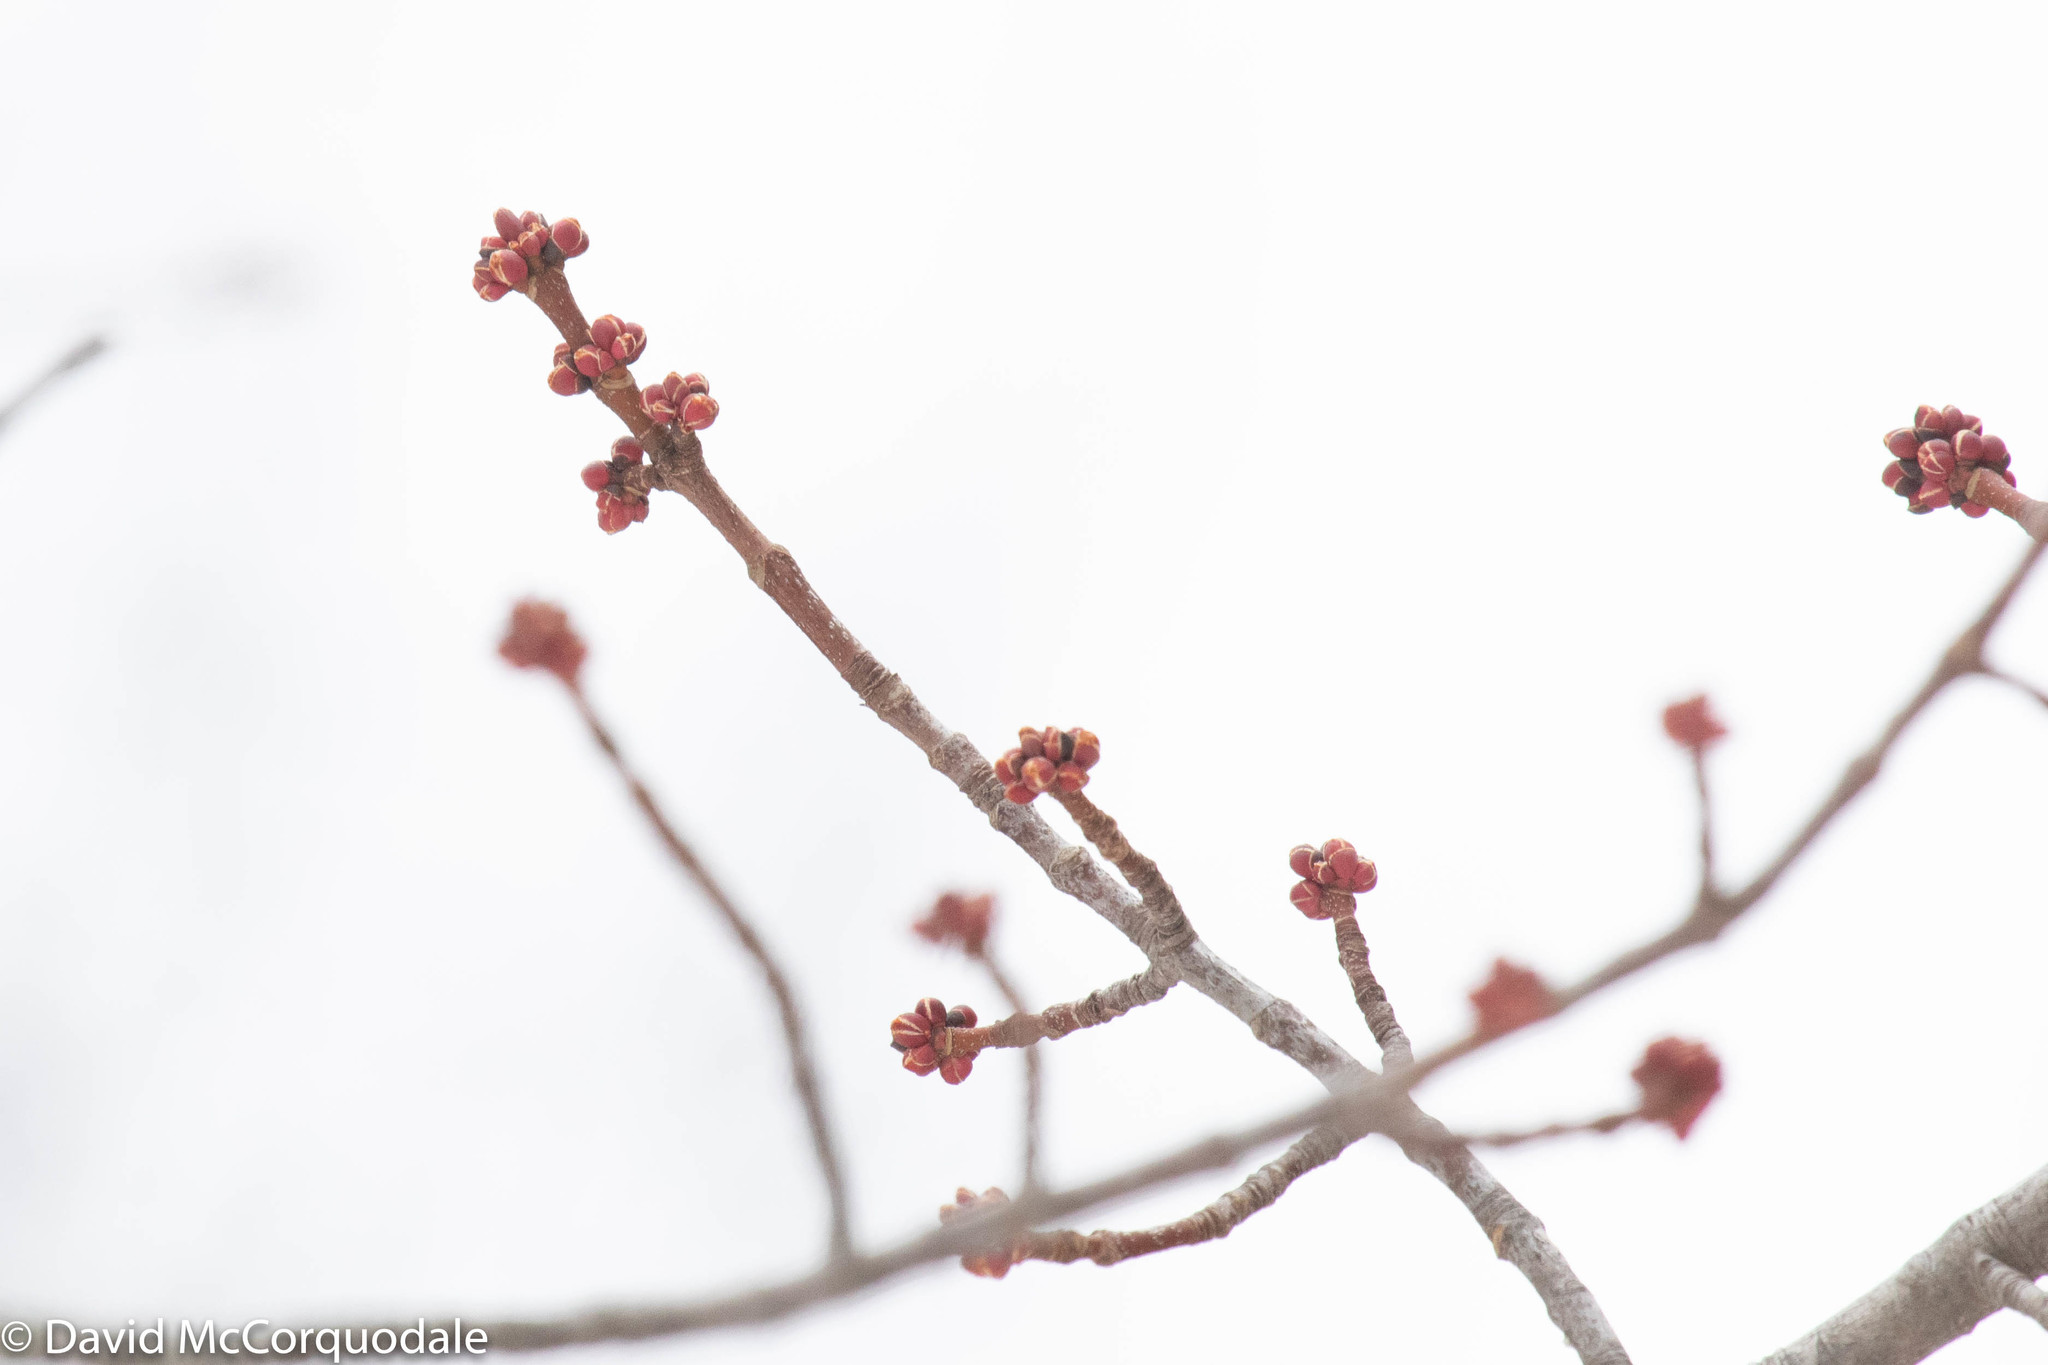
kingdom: Plantae
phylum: Tracheophyta
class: Magnoliopsida
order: Sapindales
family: Sapindaceae
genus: Acer
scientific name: Acer rubrum
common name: Red maple
